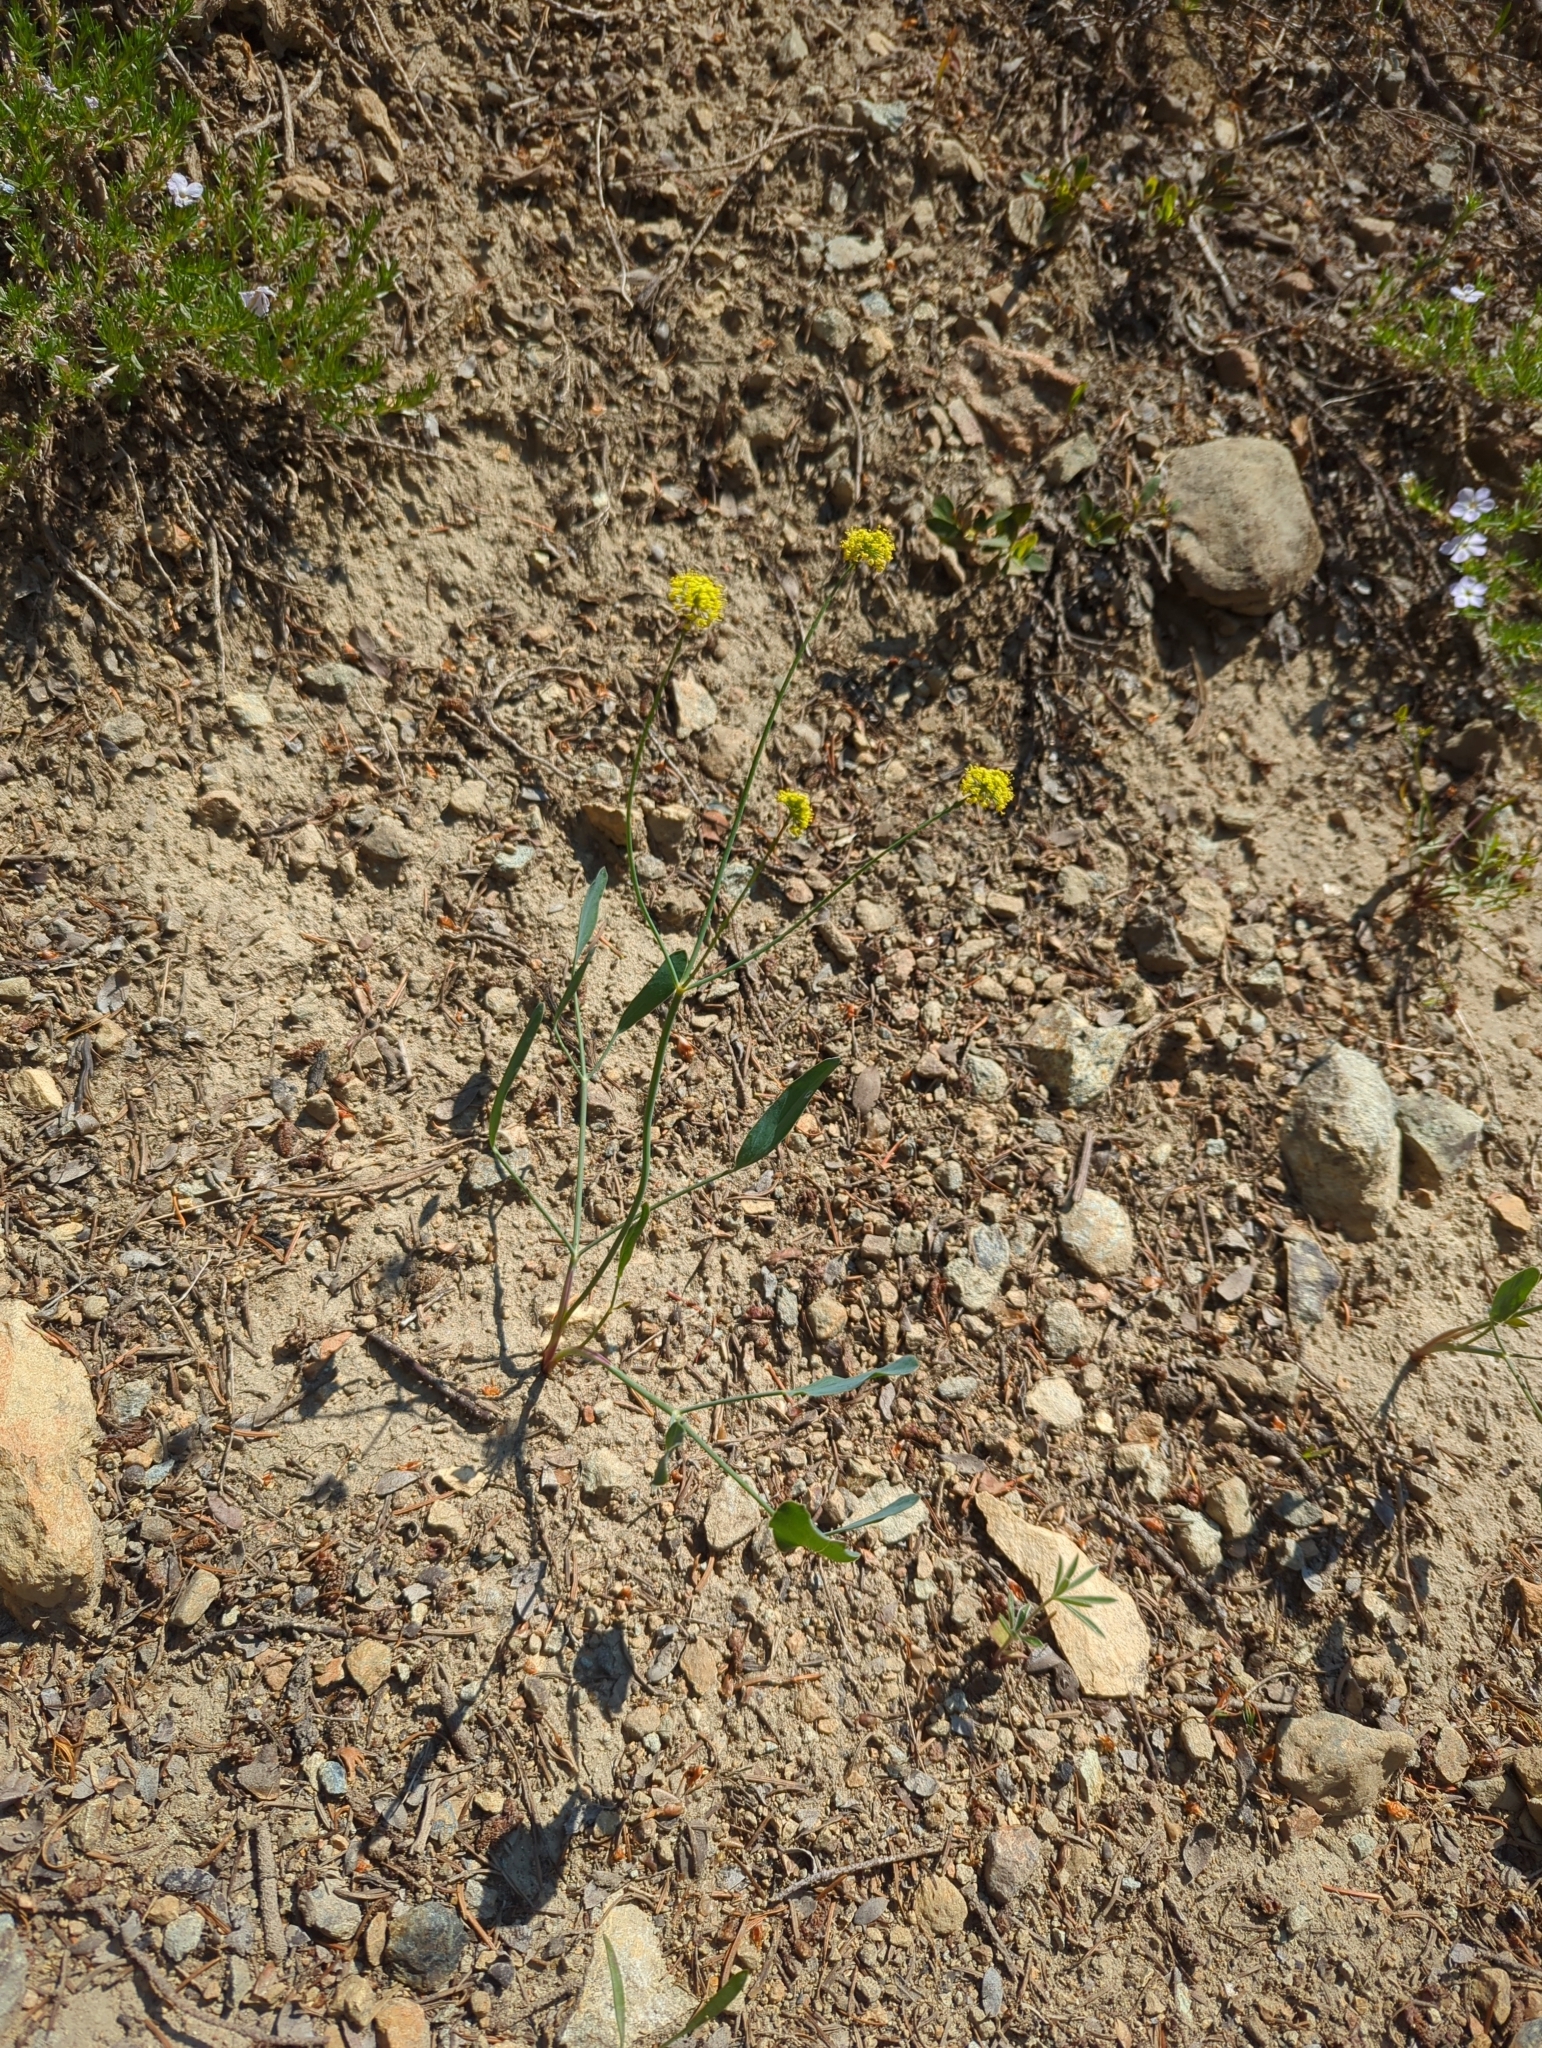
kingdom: Plantae
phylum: Tracheophyta
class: Magnoliopsida
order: Apiales
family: Apiaceae
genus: Lomatium
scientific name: Lomatium nudicaule
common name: Pestle lomatium
